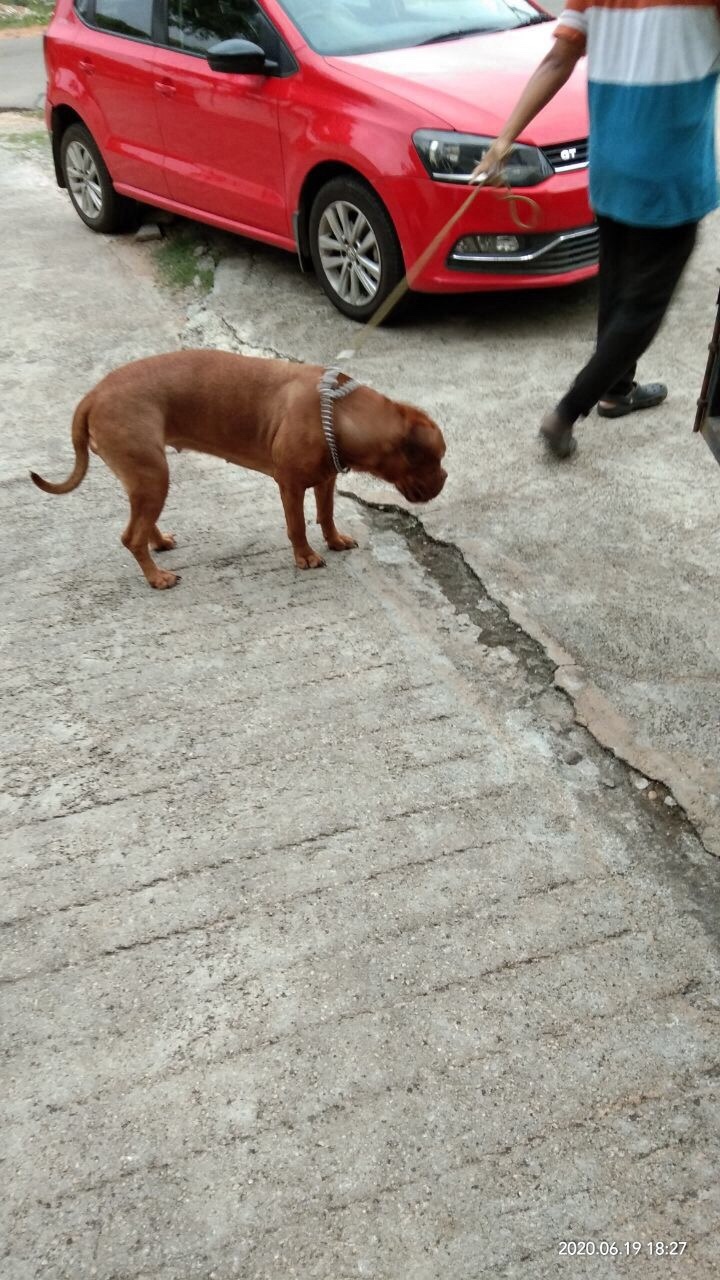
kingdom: Animalia
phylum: Chordata
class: Mammalia
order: Carnivora
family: Canidae
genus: Canis
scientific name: Canis lupus
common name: Gray wolf
